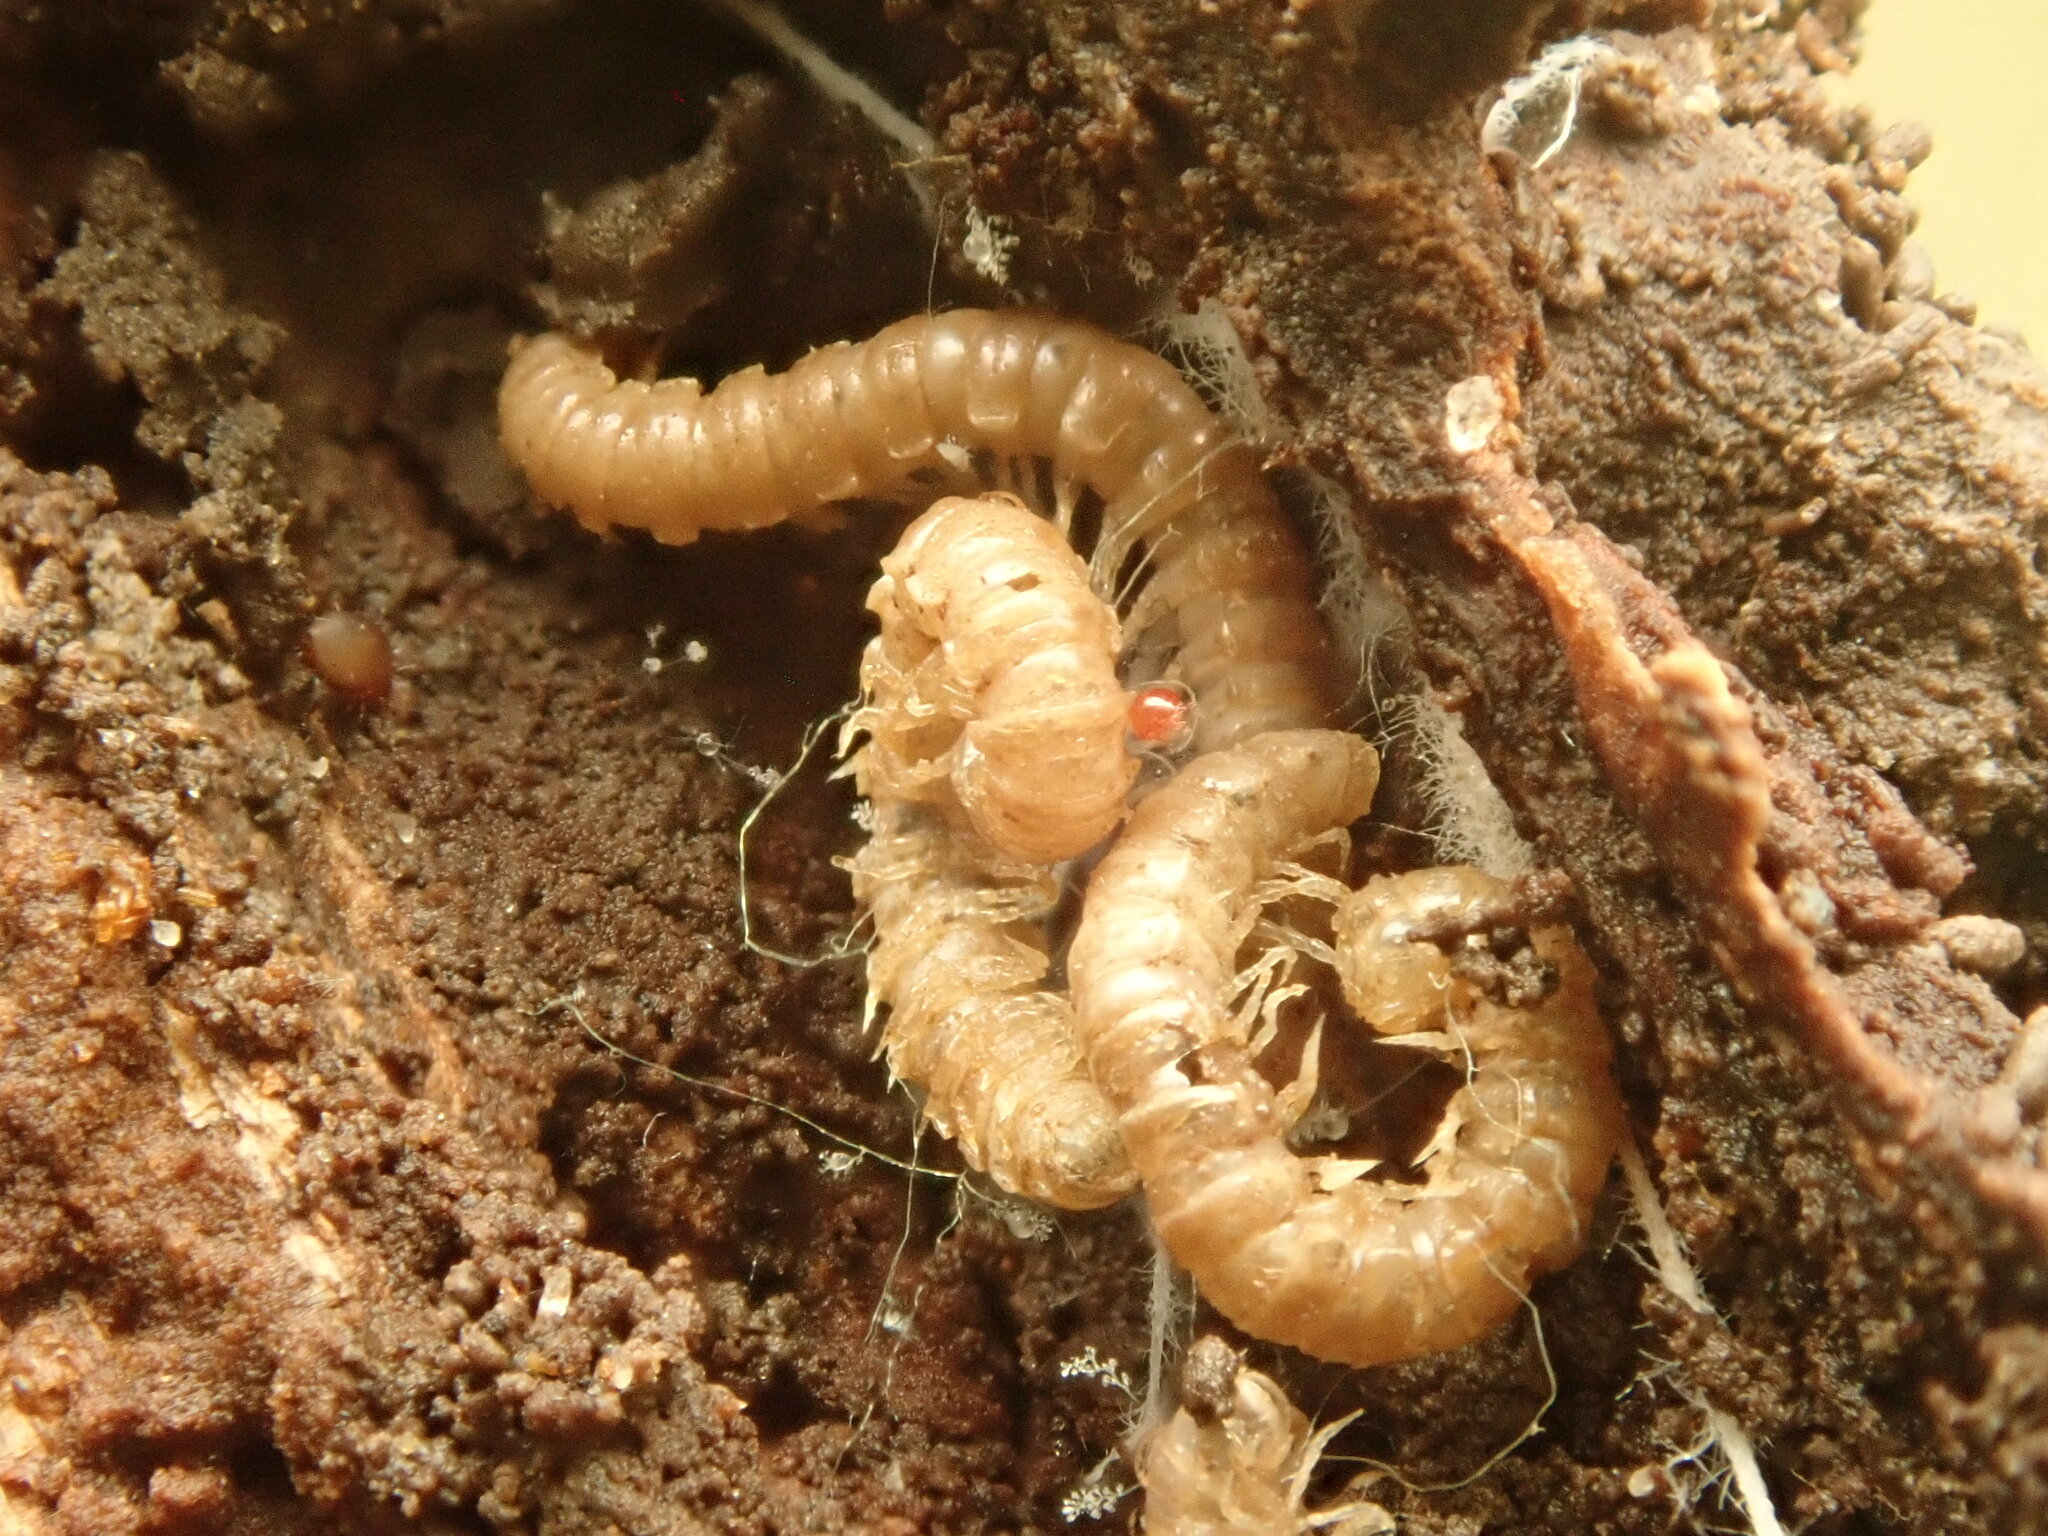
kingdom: Animalia
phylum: Arthropoda
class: Diplopoda
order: Polydesmida
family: Paradoxosomatidae
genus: Oxidus
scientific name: Oxidus gracilis
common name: Greenhouse millipede
